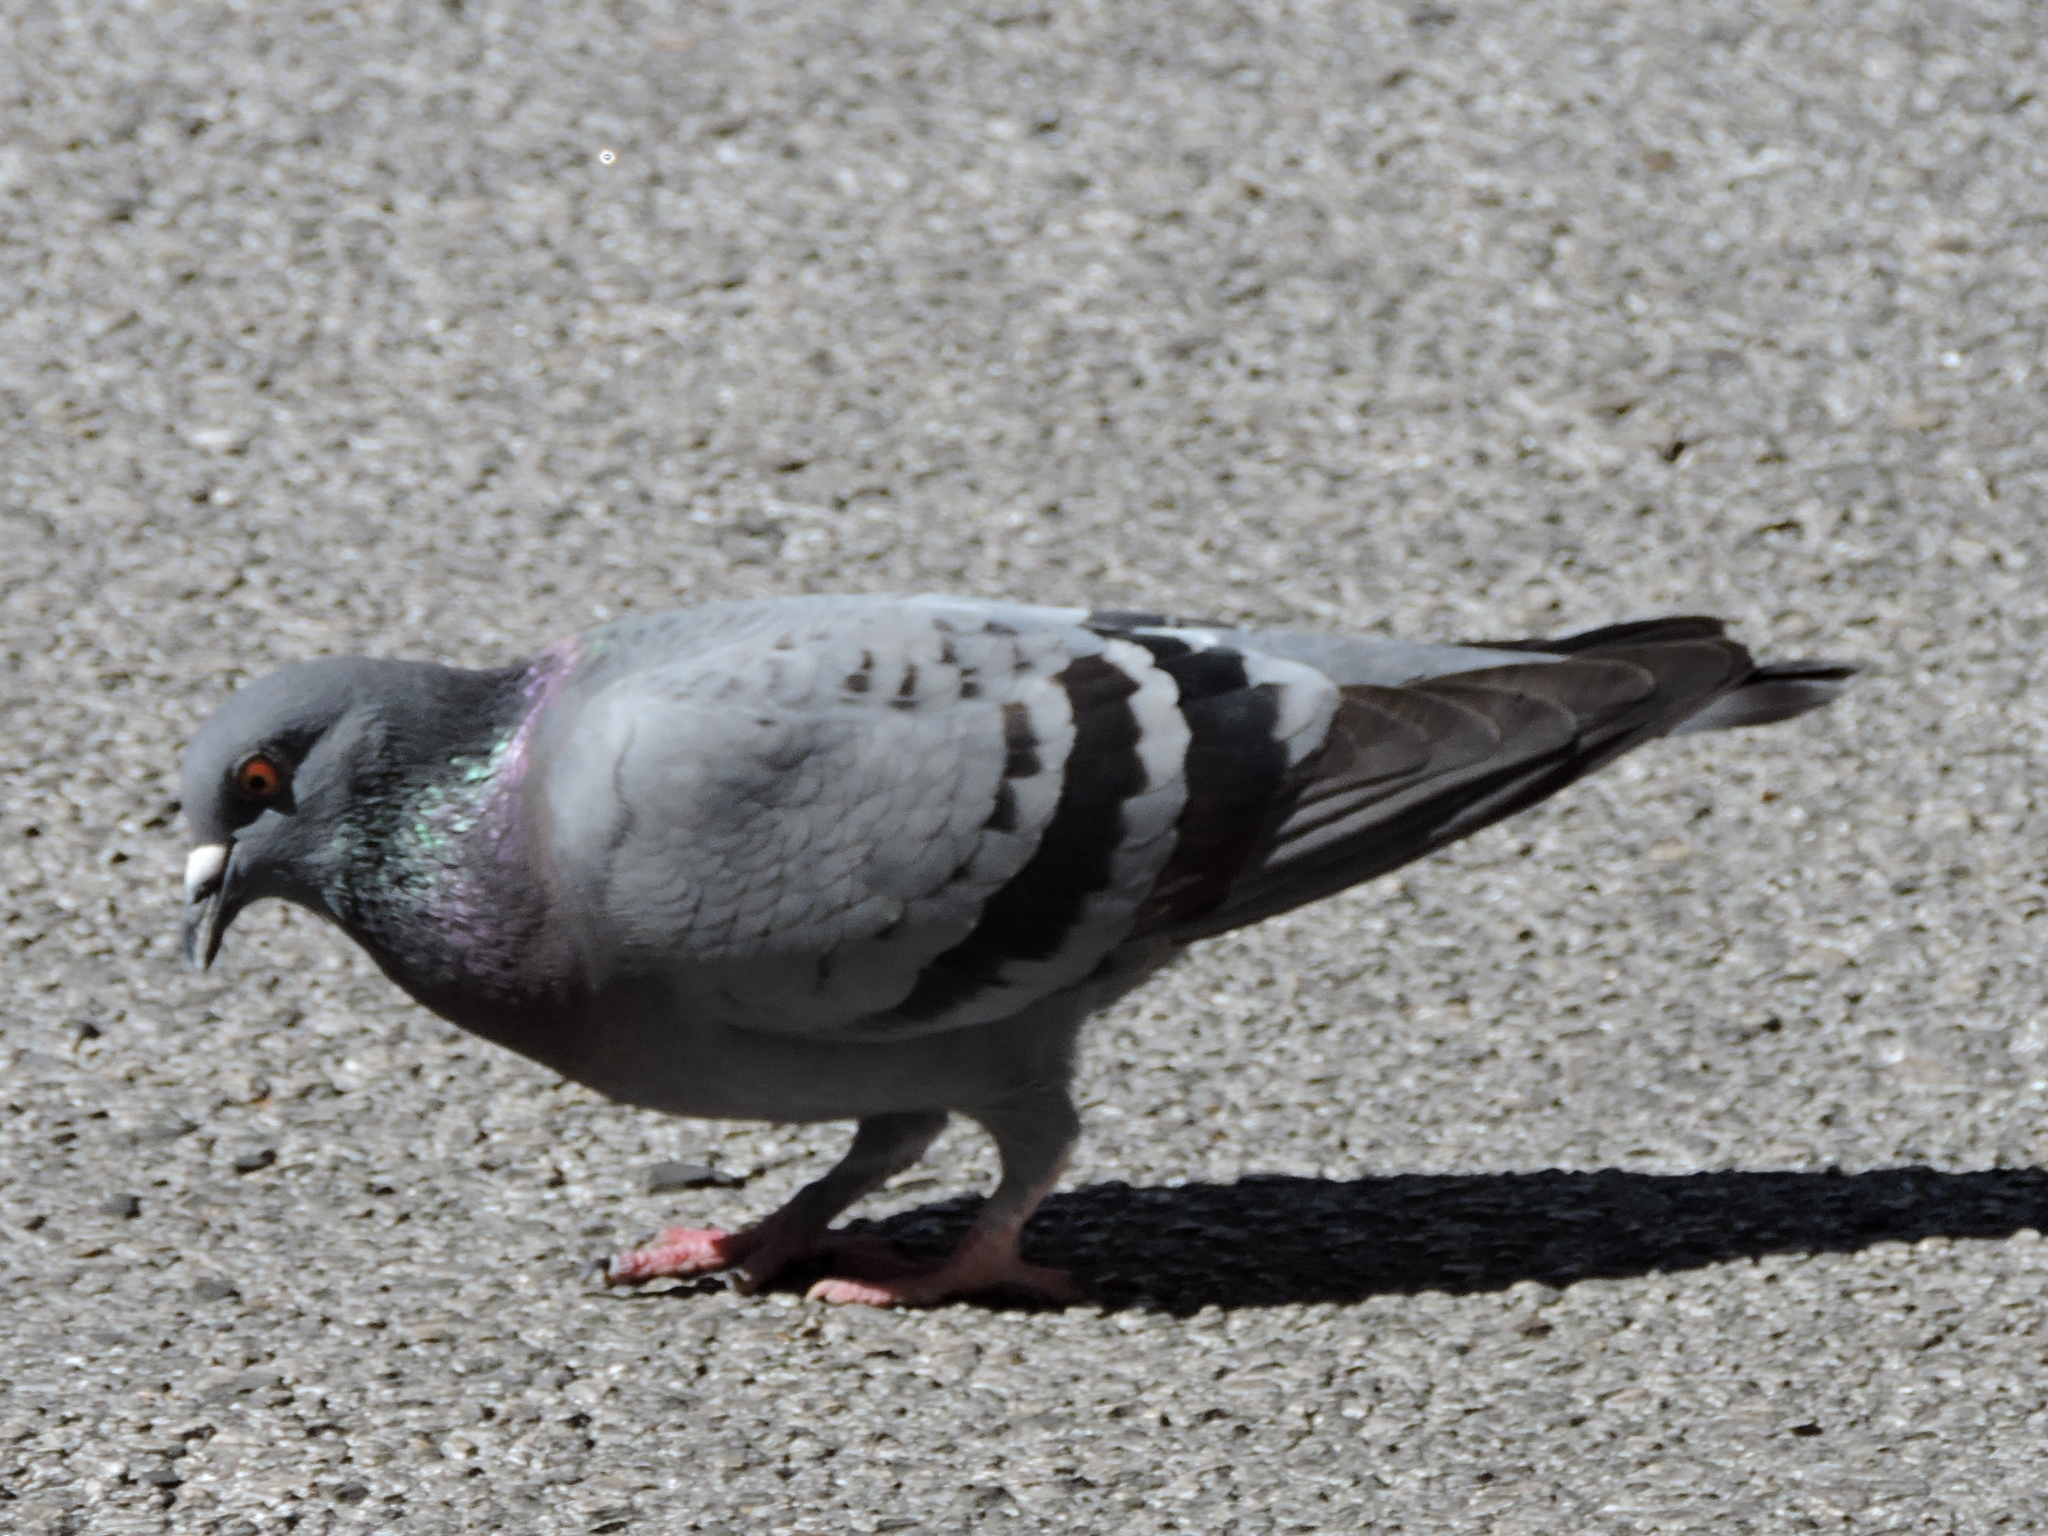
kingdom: Animalia
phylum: Chordata
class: Aves
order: Columbiformes
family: Columbidae
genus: Columba
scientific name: Columba livia
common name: Rock pigeon
